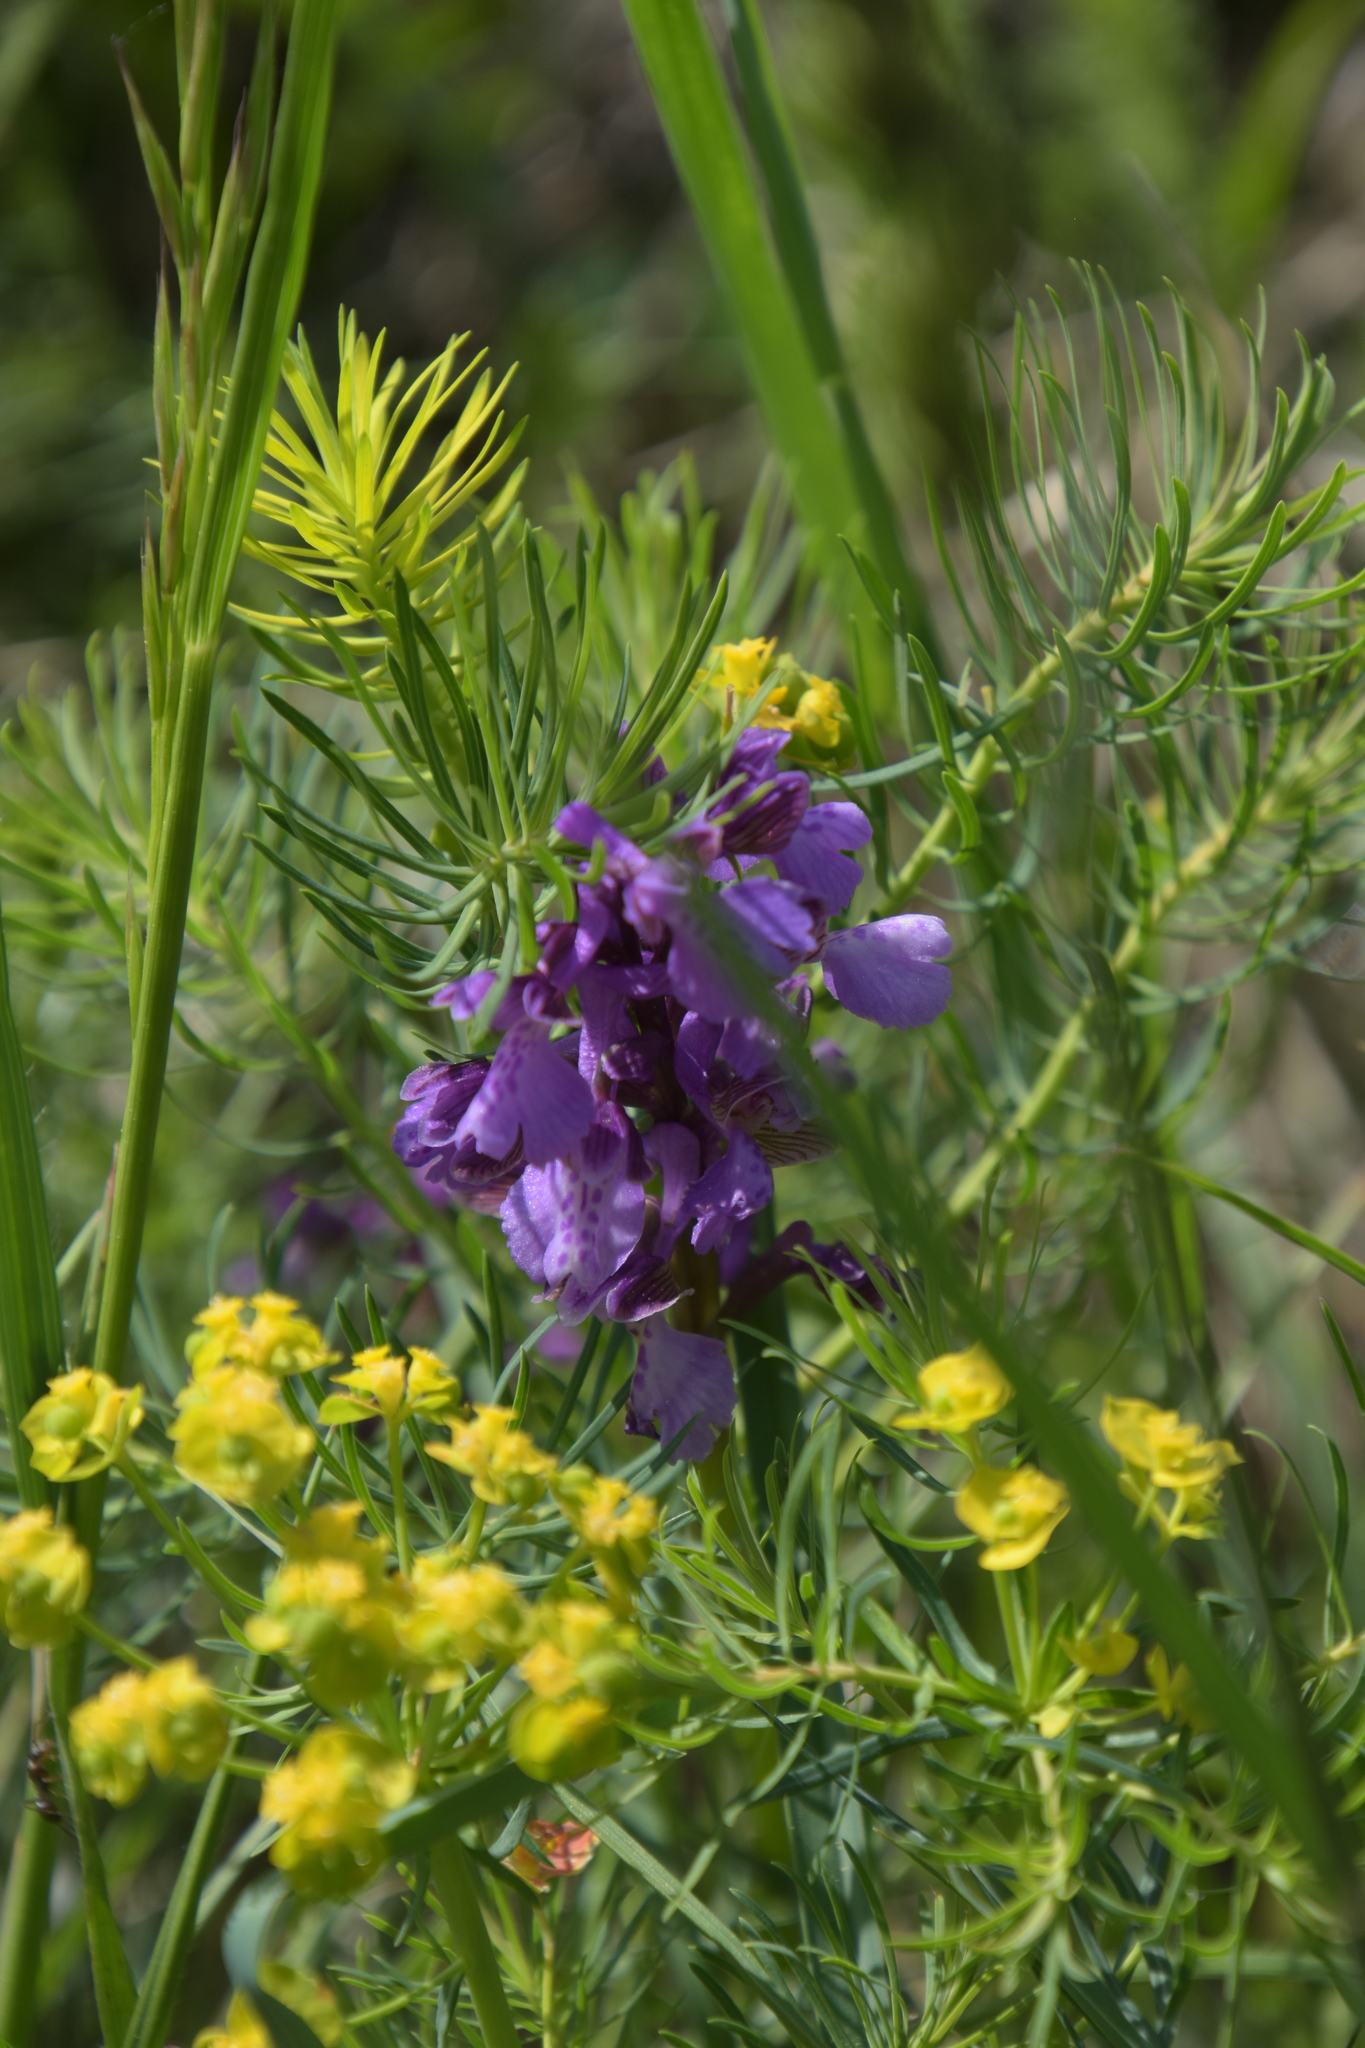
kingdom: Plantae
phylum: Tracheophyta
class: Liliopsida
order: Asparagales
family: Orchidaceae
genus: Anacamptis
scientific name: Anacamptis morio
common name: Green-winged orchid
